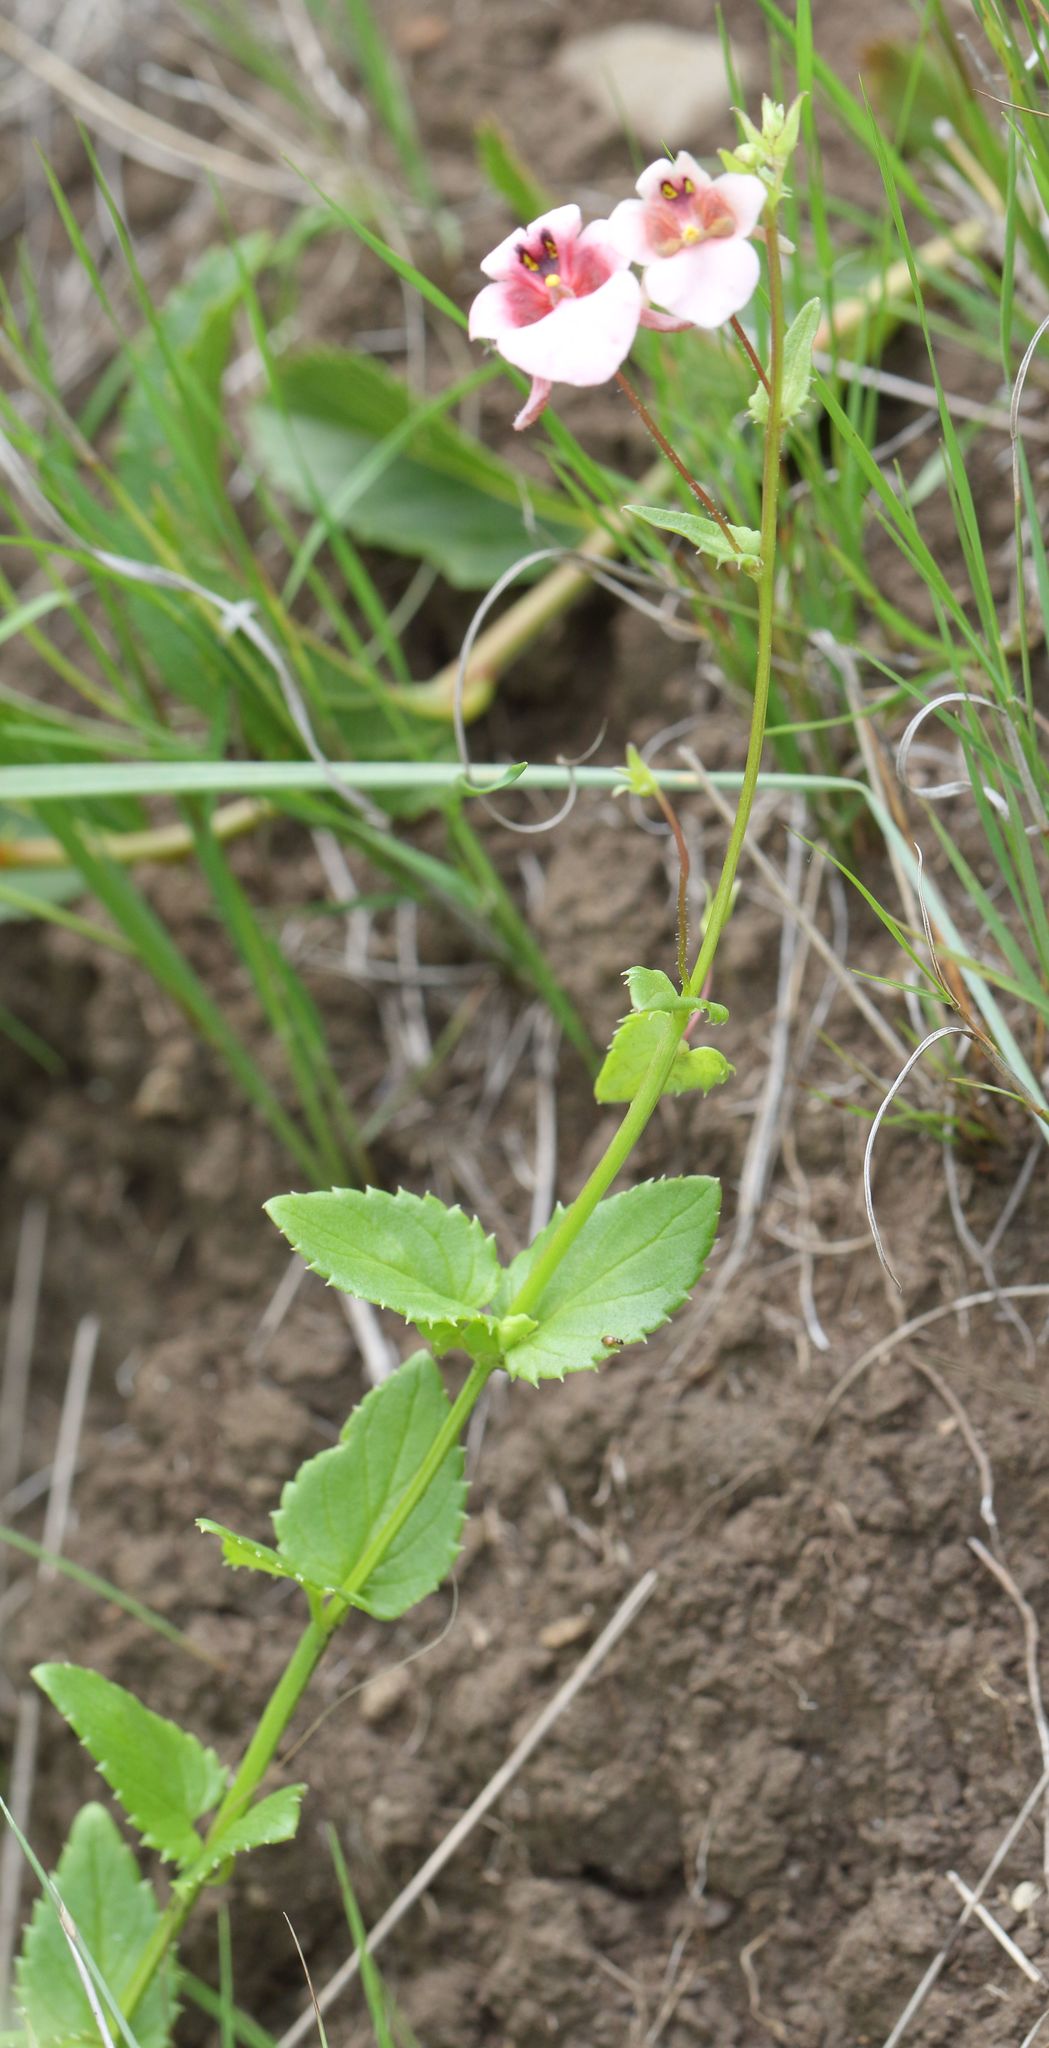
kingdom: Plantae
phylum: Tracheophyta
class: Magnoliopsida
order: Lamiales
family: Scrophulariaceae
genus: Diascia
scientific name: Diascia cordata
